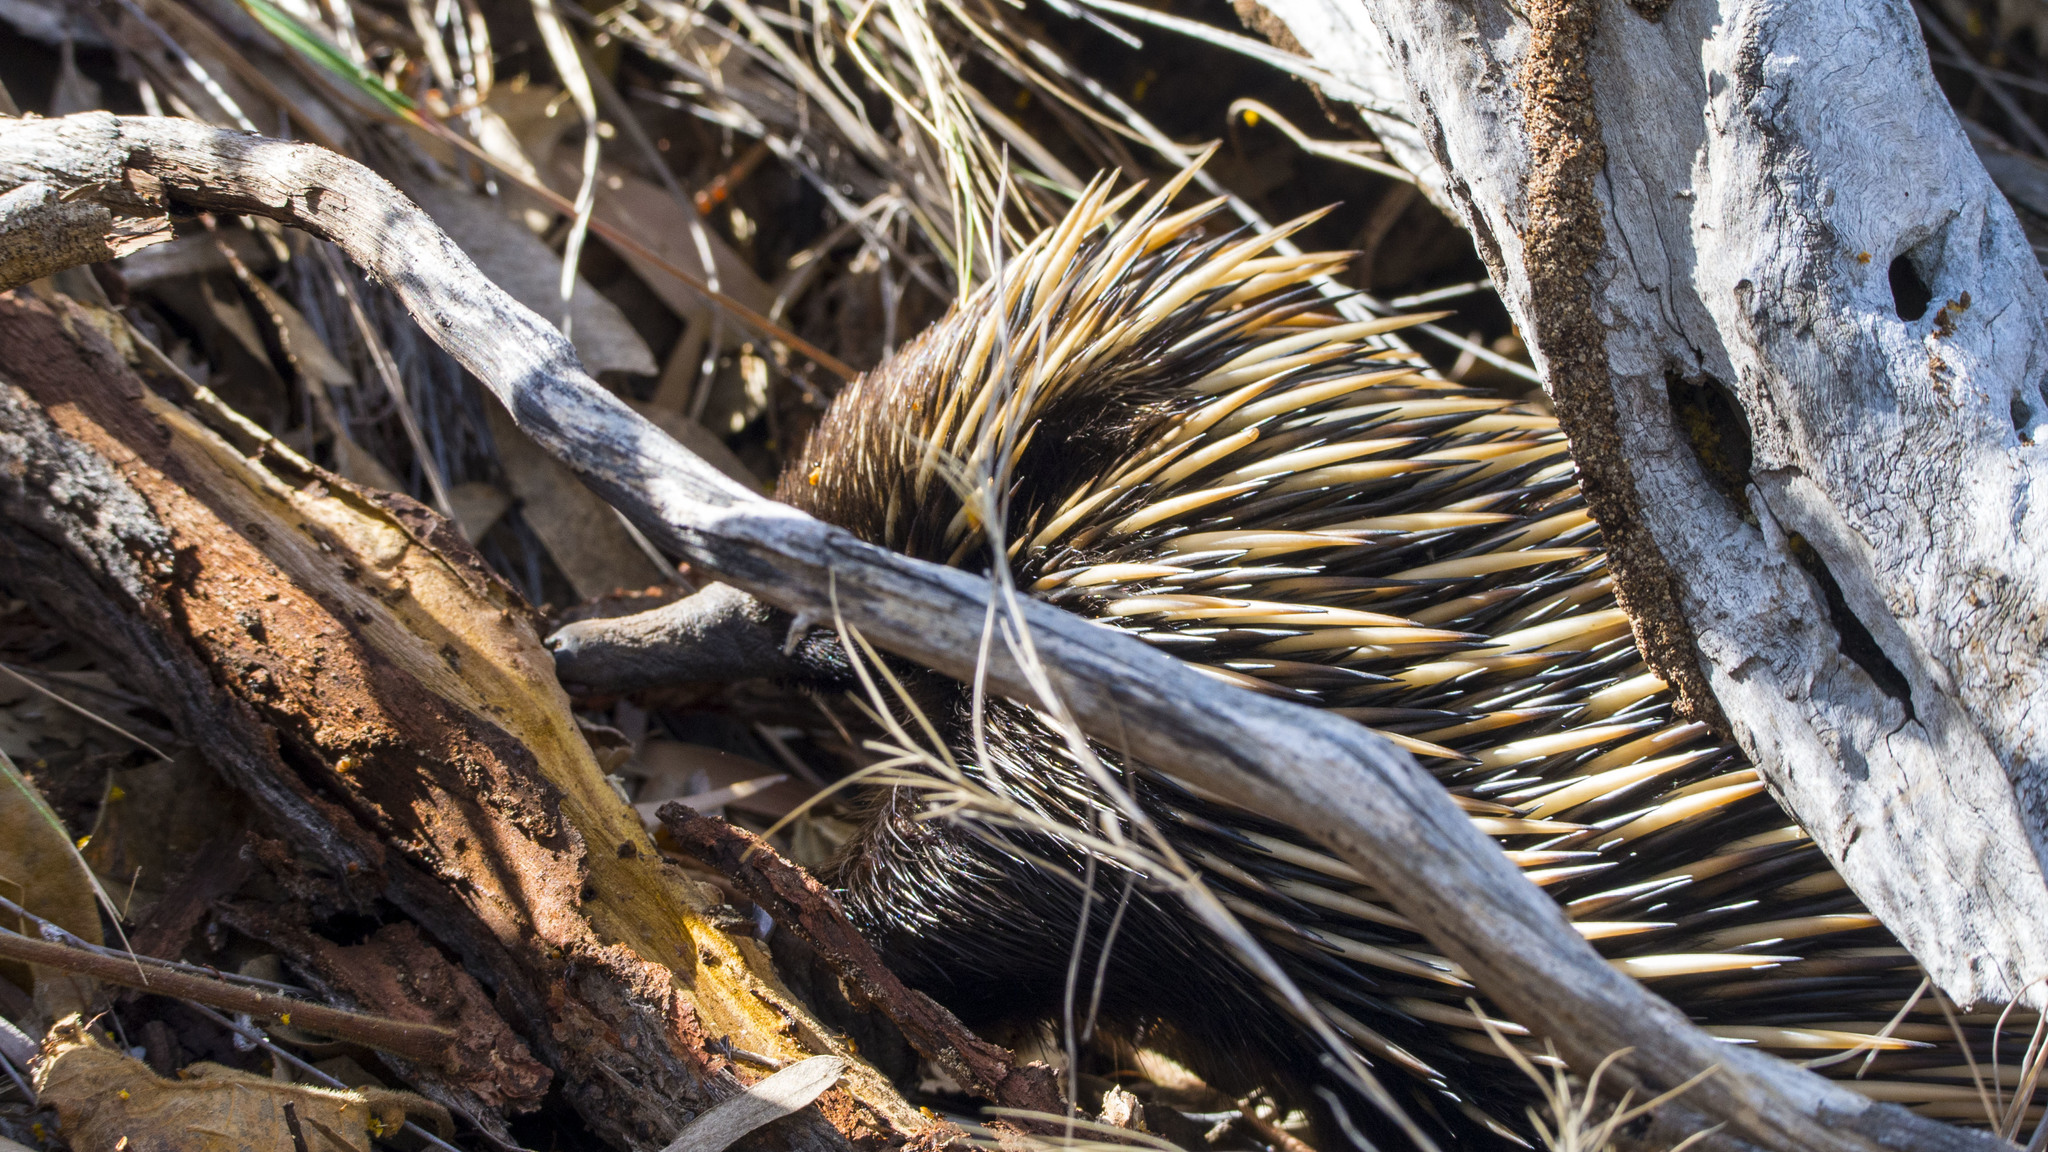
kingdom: Animalia
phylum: Chordata
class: Mammalia
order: Monotremata
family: Tachyglossidae
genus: Tachyglossus
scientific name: Tachyglossus aculeatus
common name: Short-beaked echidna
